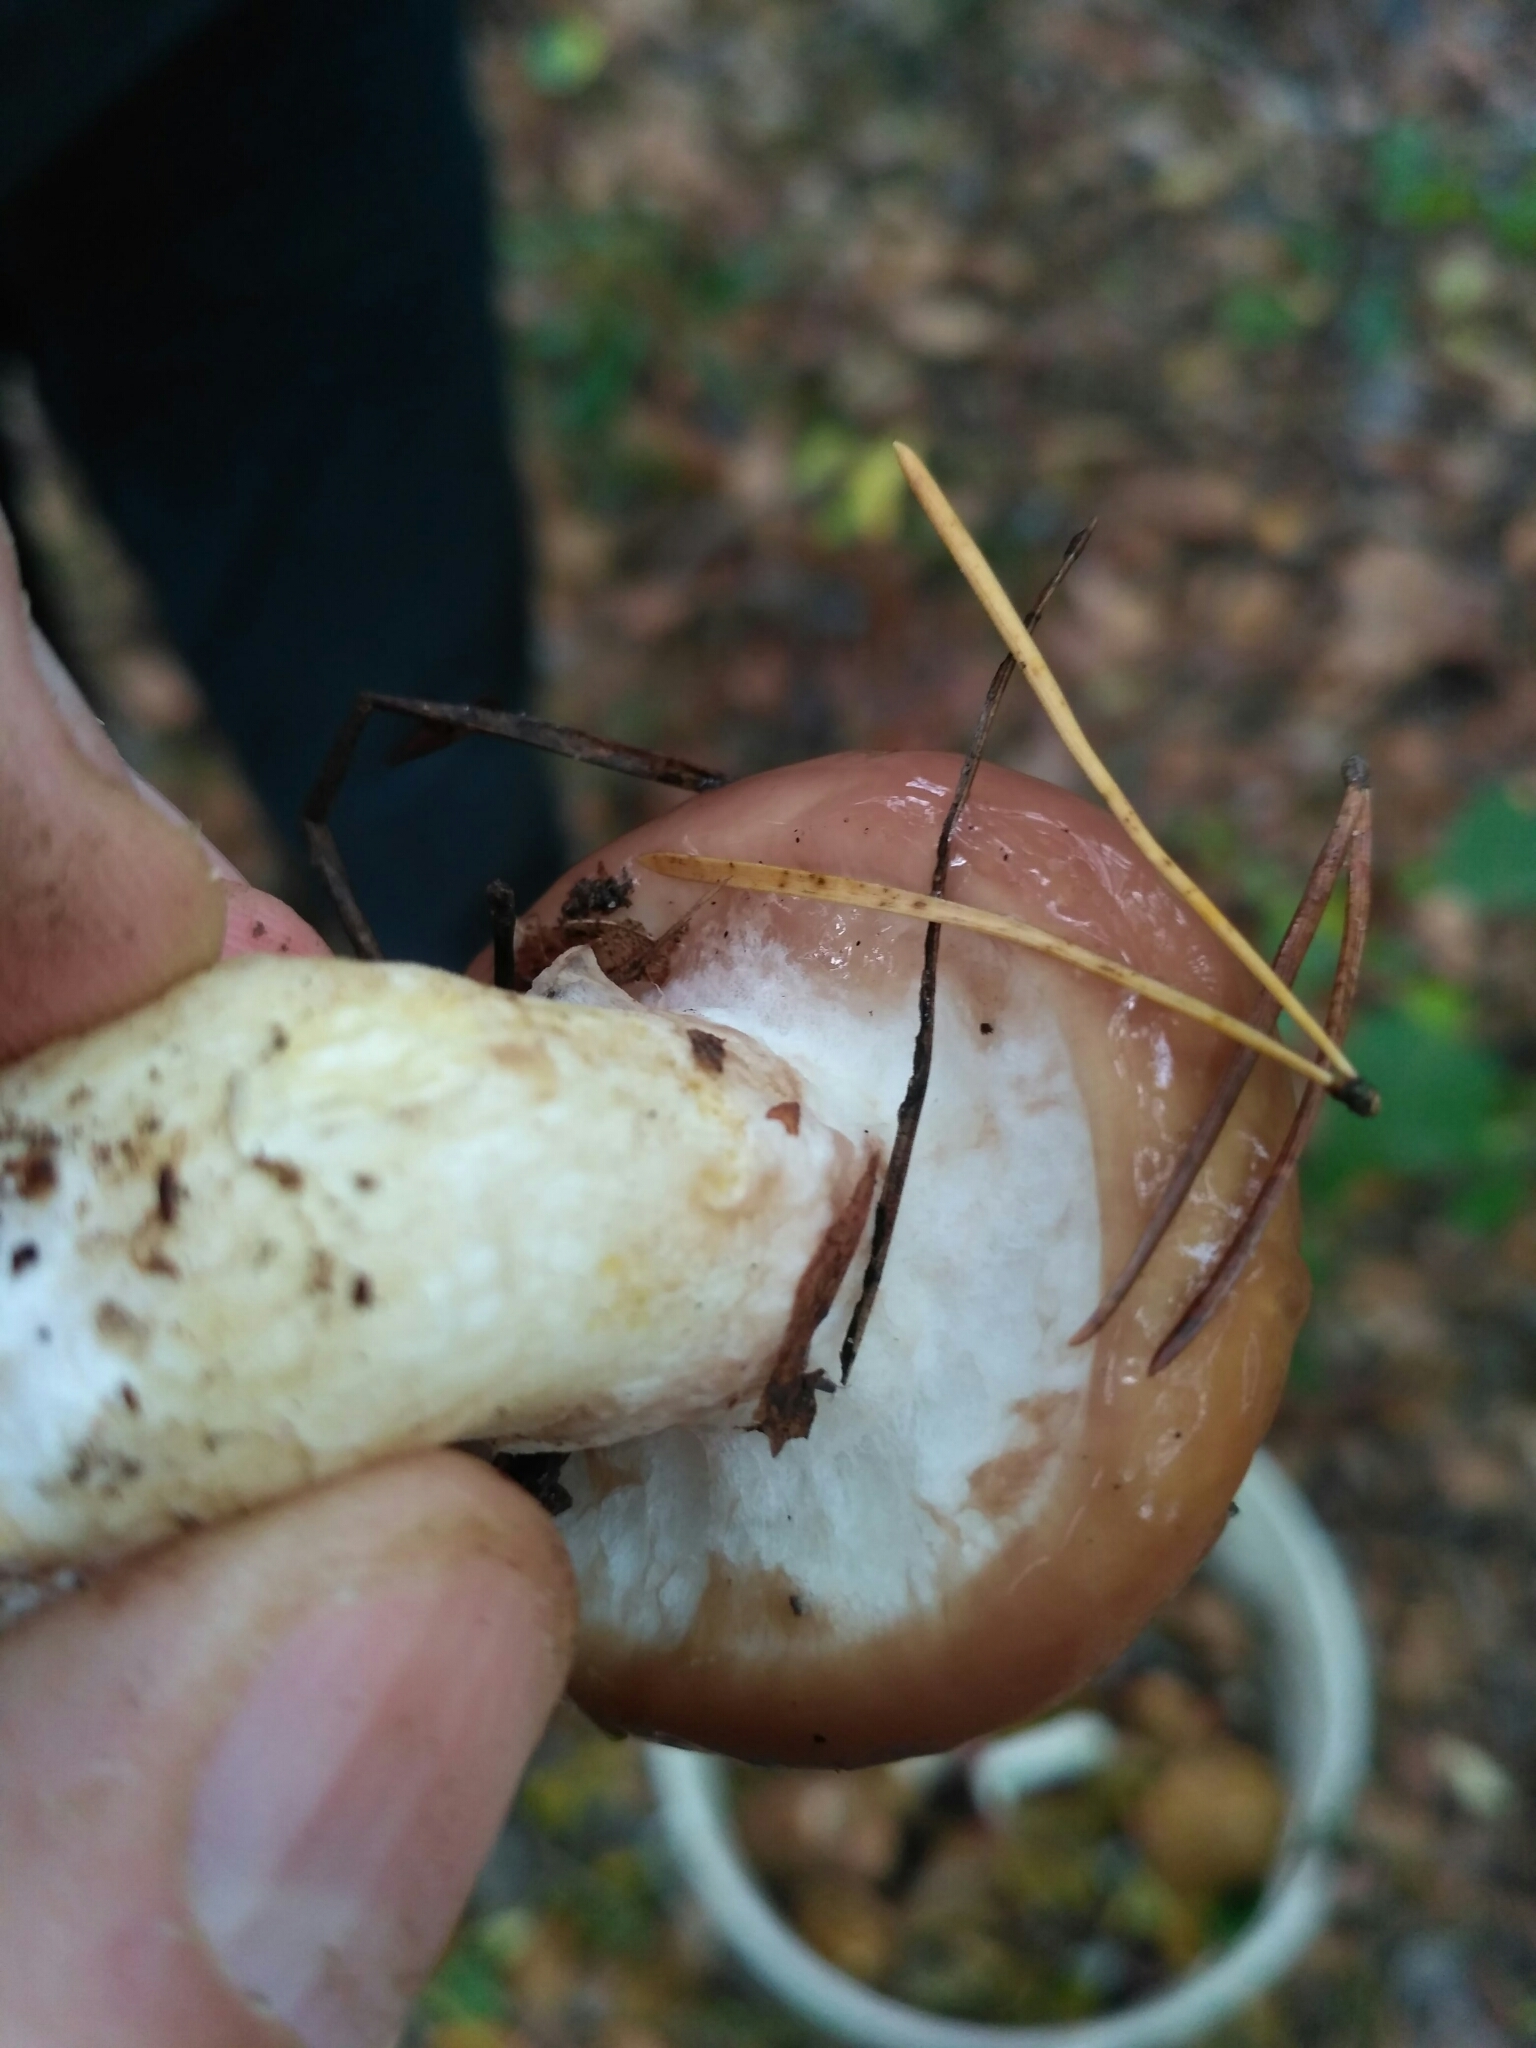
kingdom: Fungi
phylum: Basidiomycota
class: Agaricomycetes
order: Boletales
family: Suillaceae
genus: Suillus
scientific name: Suillus luteus
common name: Slippery jack
